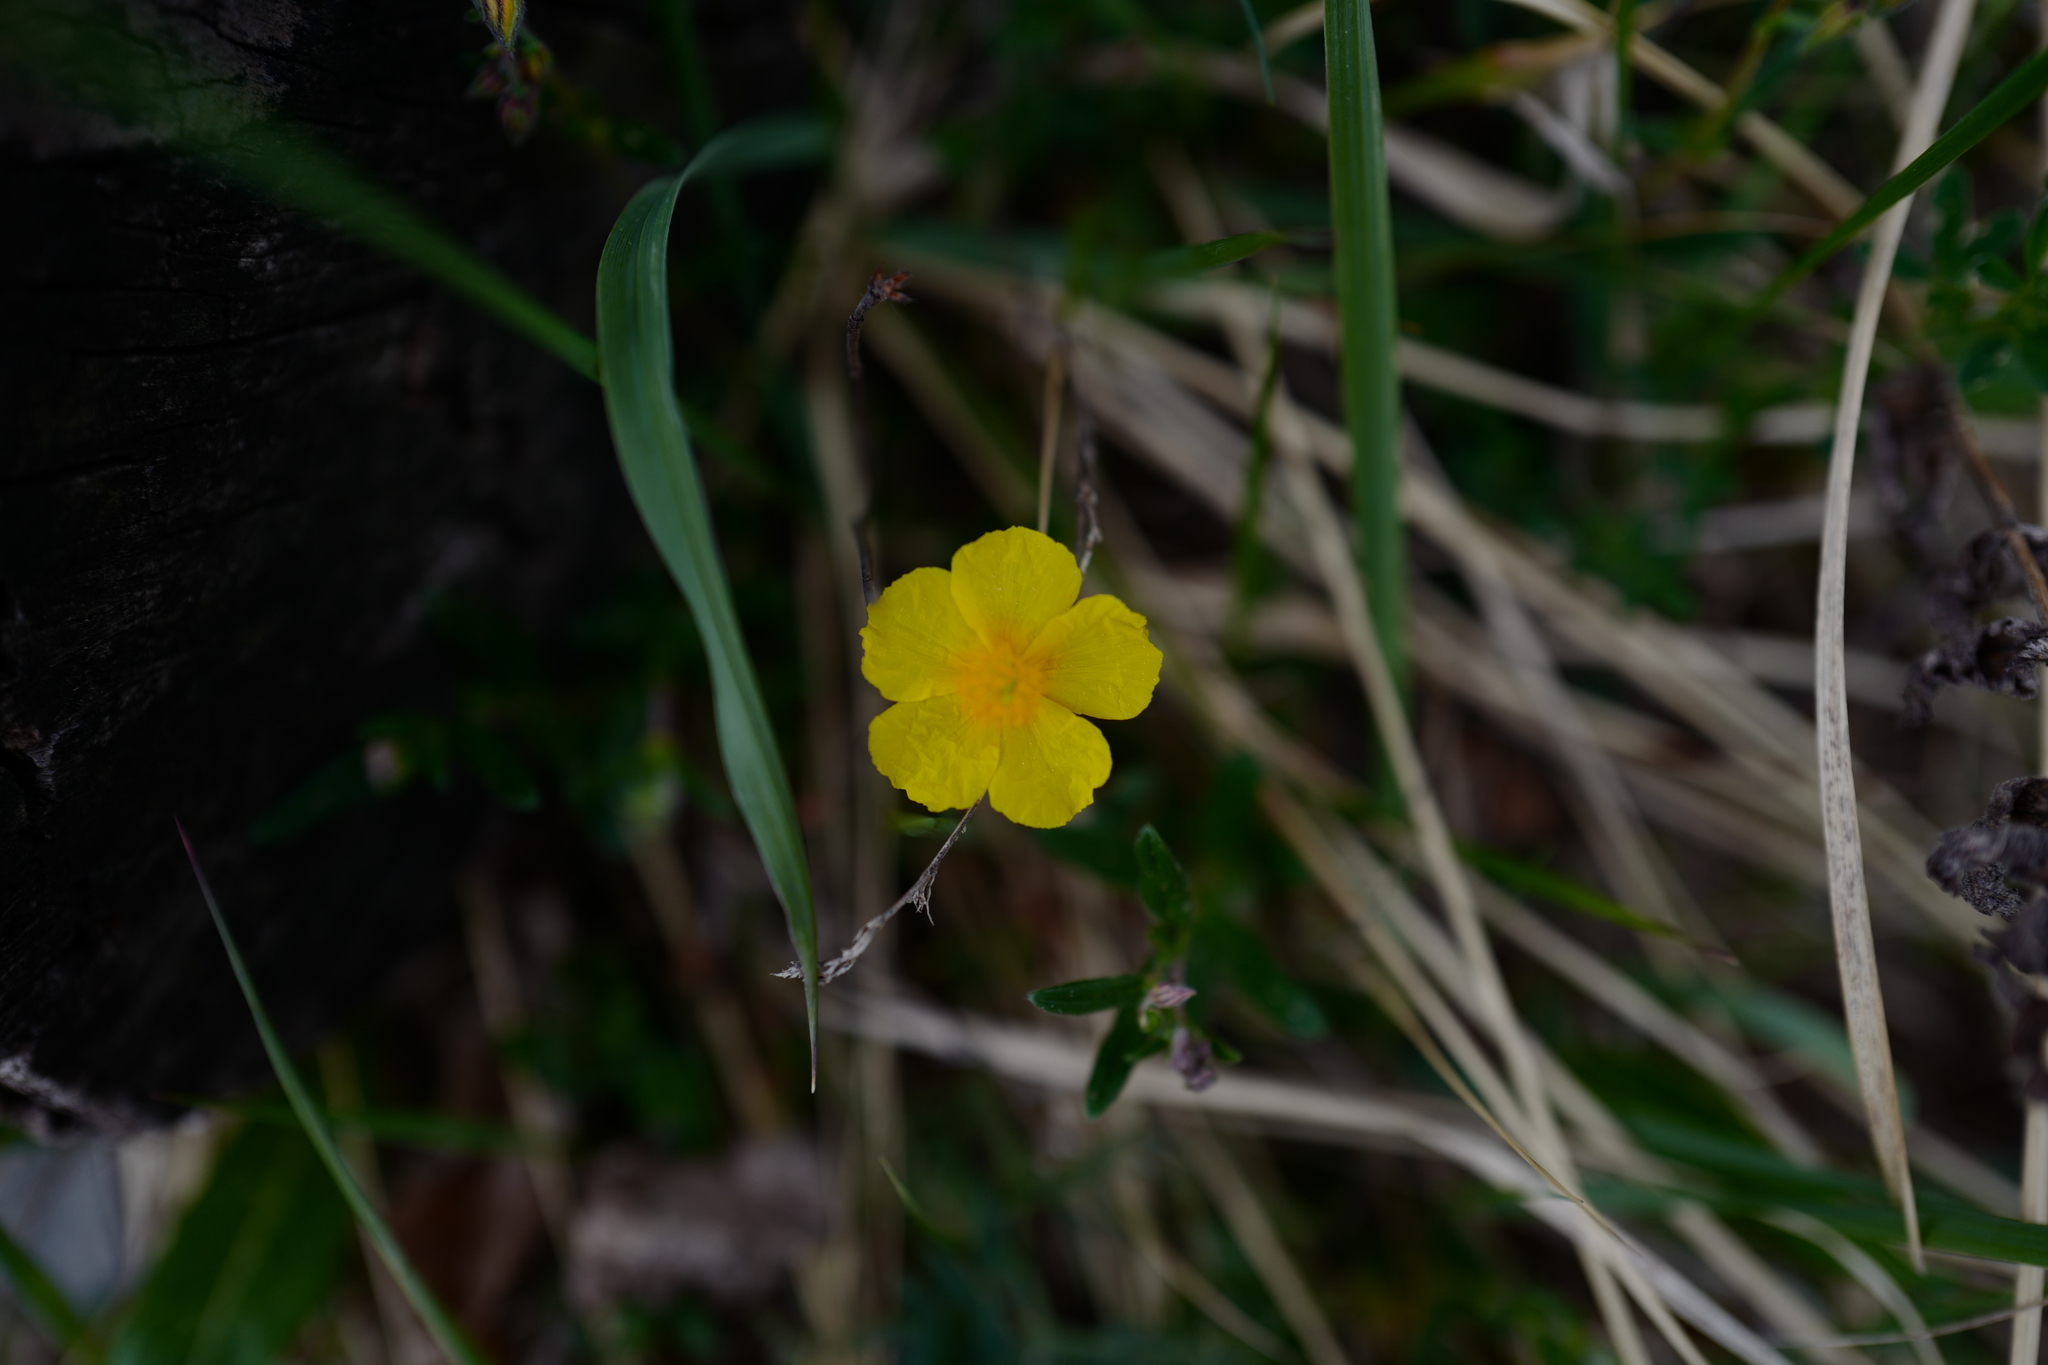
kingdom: Plantae
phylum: Tracheophyta
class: Magnoliopsida
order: Malvales
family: Cistaceae
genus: Helianthemum
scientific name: Helianthemum nummularium
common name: Common rock-rose
